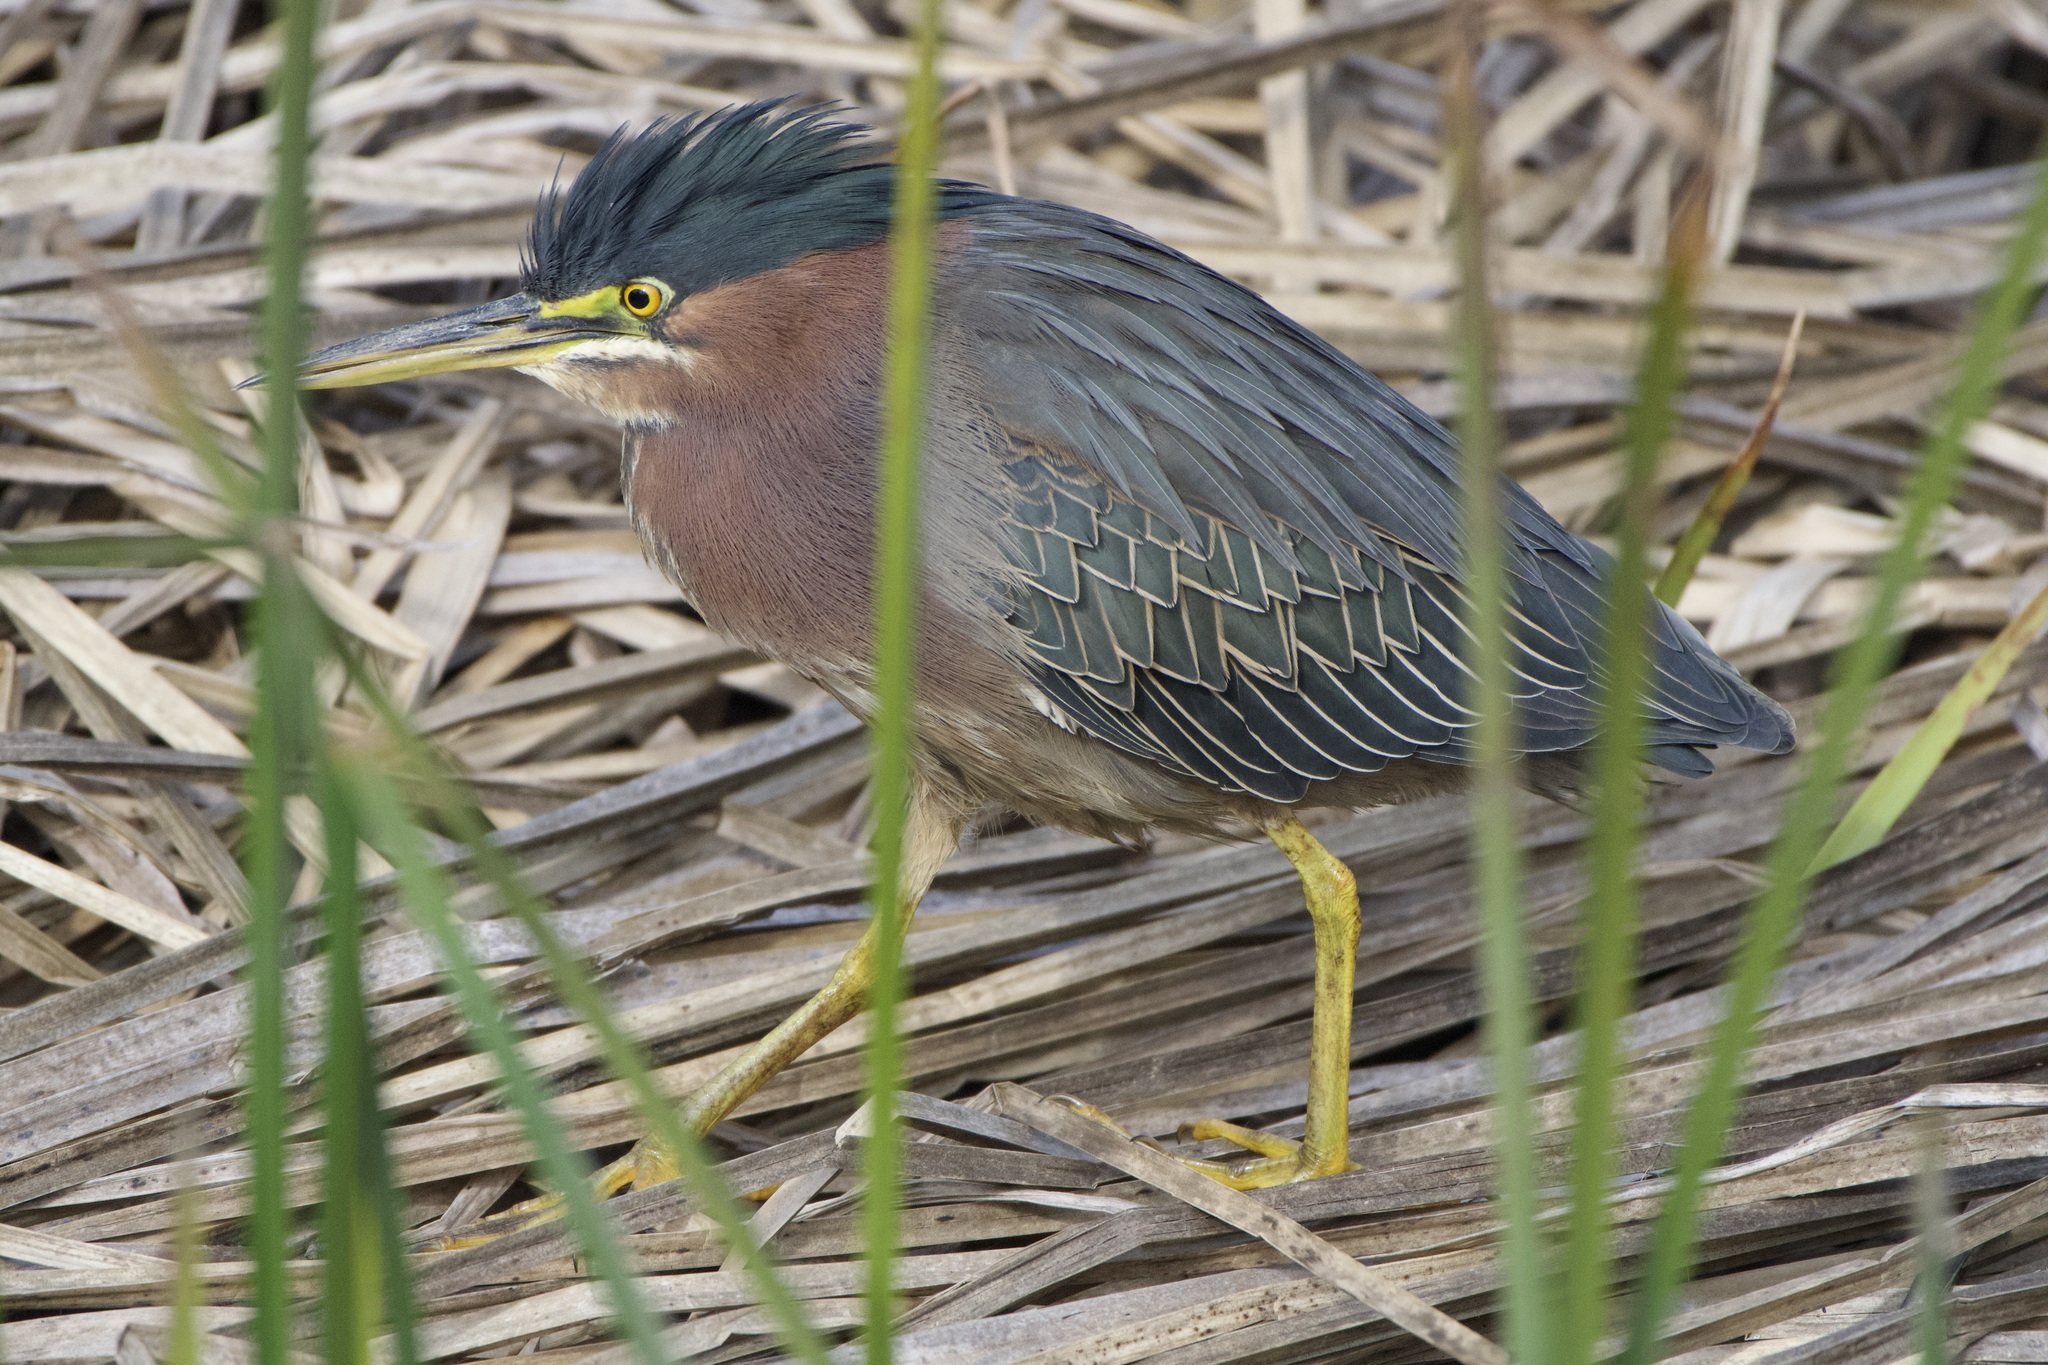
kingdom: Animalia
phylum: Chordata
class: Aves
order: Pelecaniformes
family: Ardeidae
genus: Butorides
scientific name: Butorides virescens
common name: Green heron
